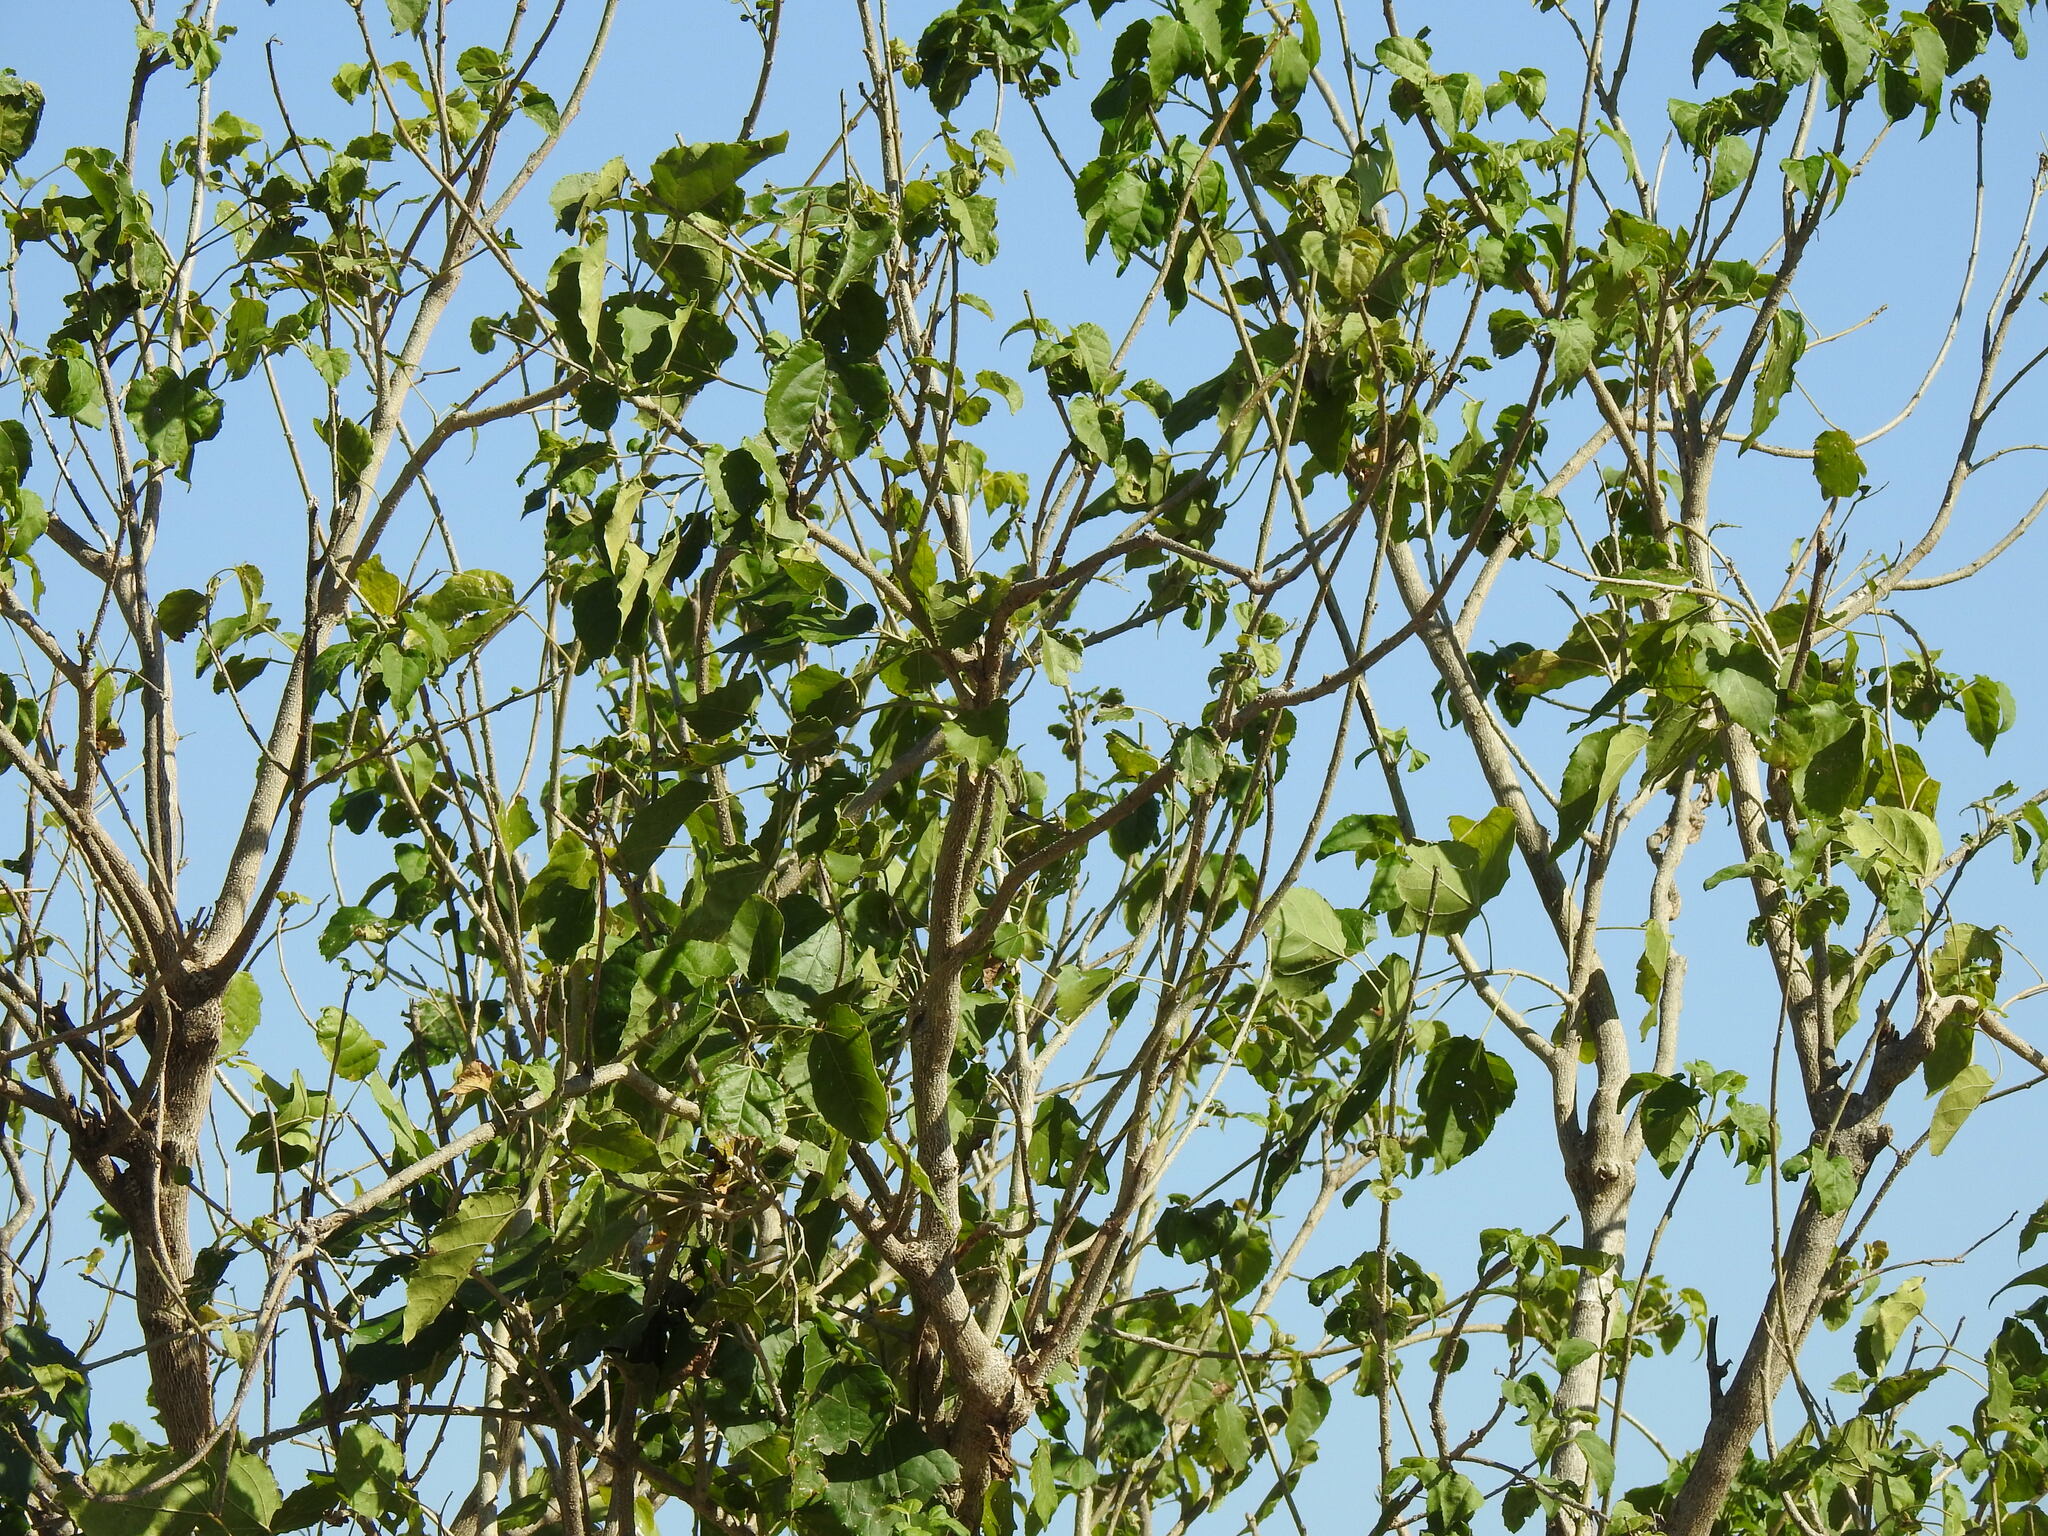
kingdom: Plantae
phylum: Tracheophyta
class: Magnoliopsida
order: Malpighiales
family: Euphorbiaceae
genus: Croton
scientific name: Croton megalobotrys
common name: Large fever berry
